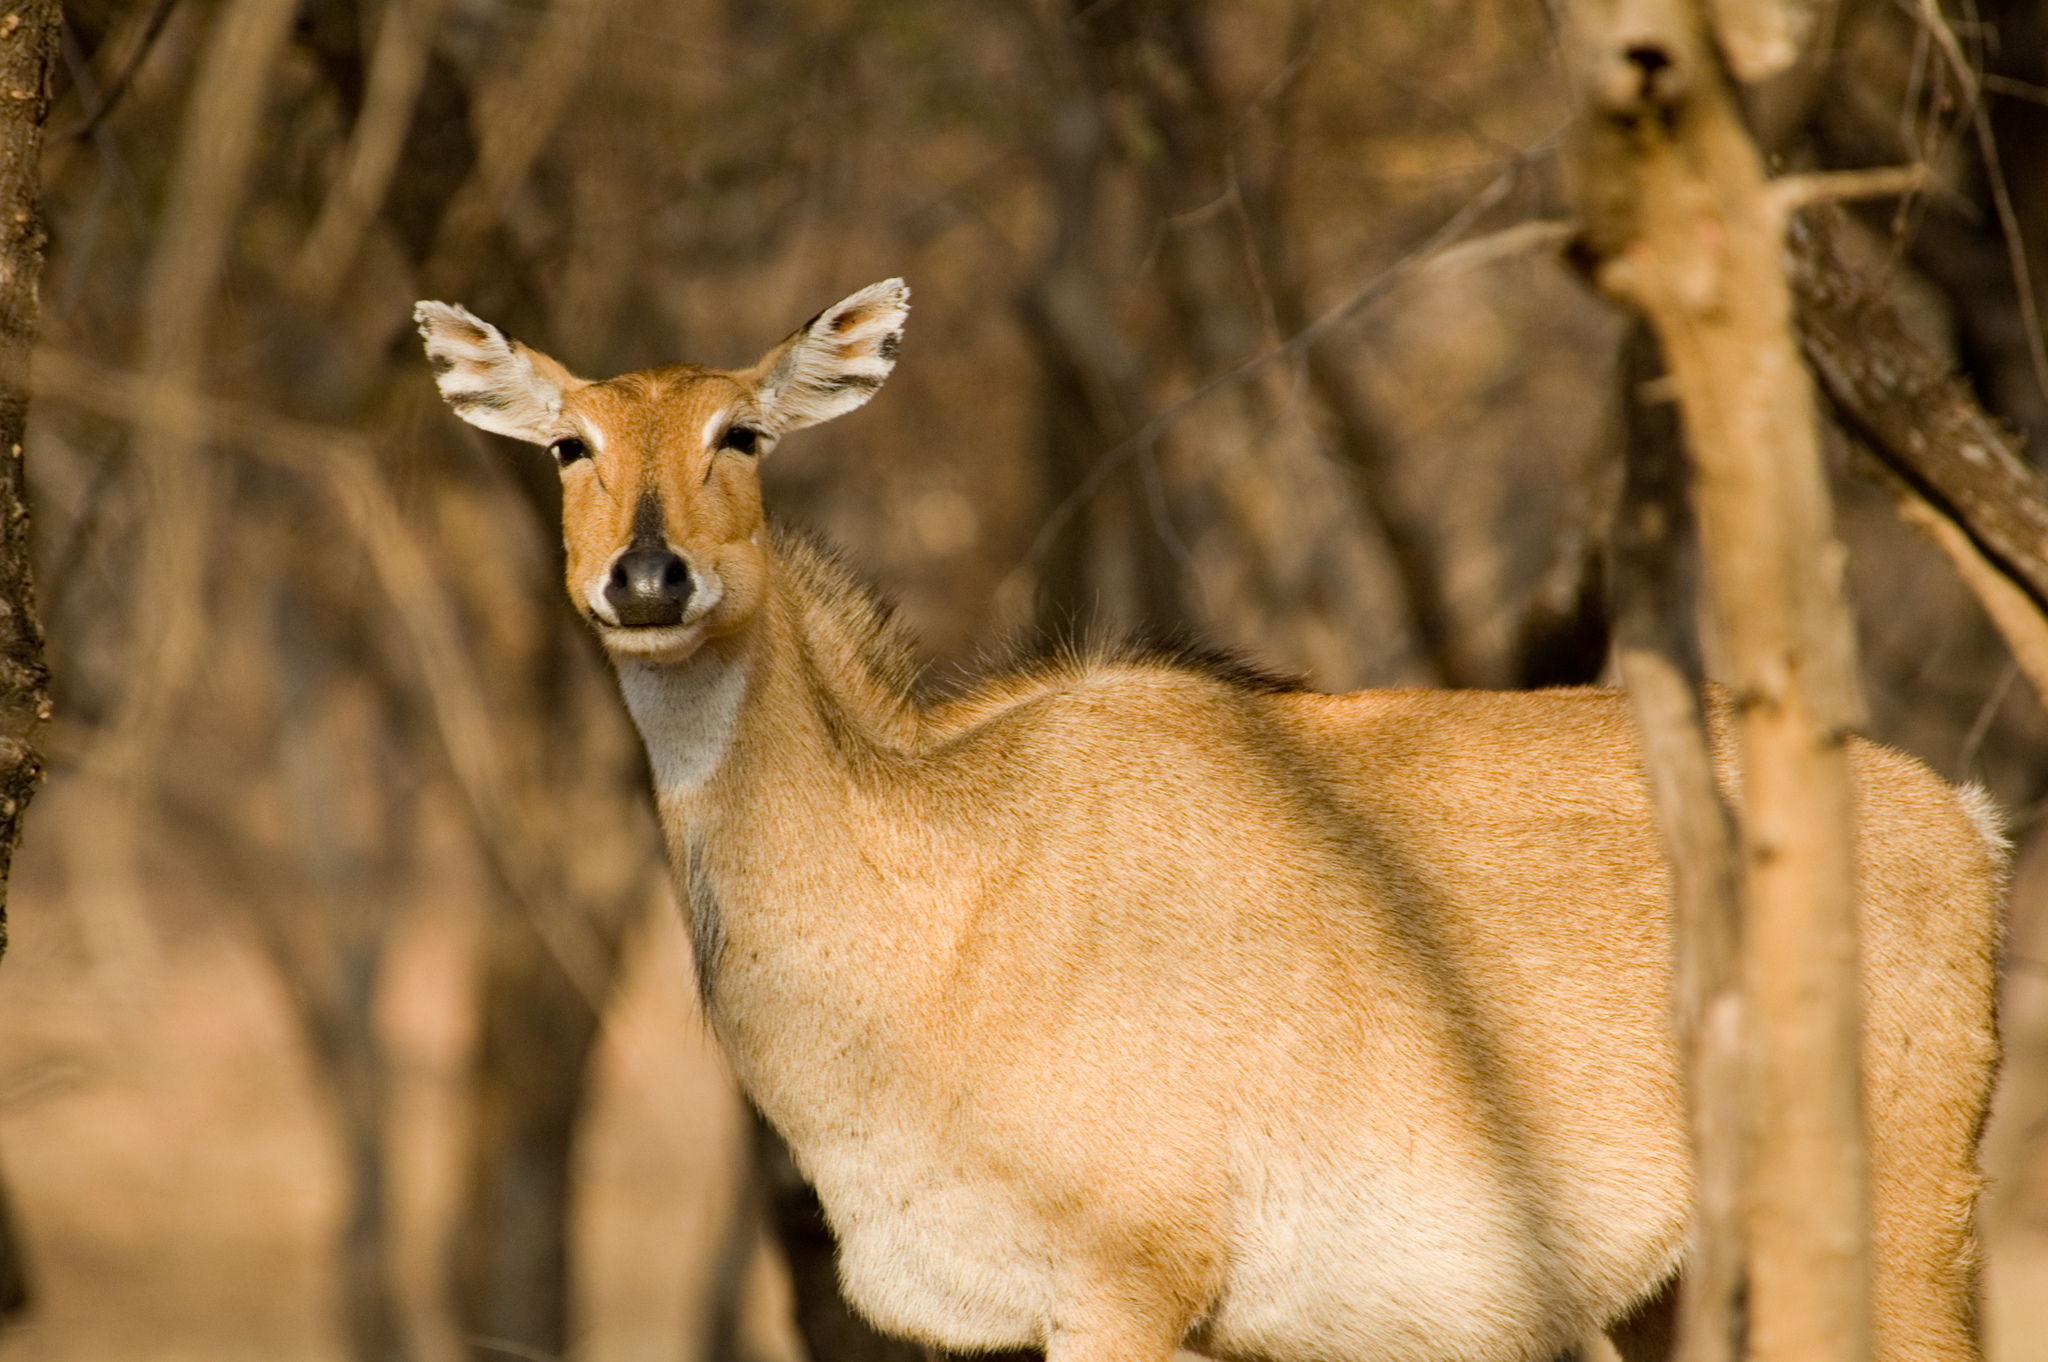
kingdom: Animalia
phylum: Chordata
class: Mammalia
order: Artiodactyla
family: Bovidae
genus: Boselaphus
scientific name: Boselaphus tragocamelus
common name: Nilgai
